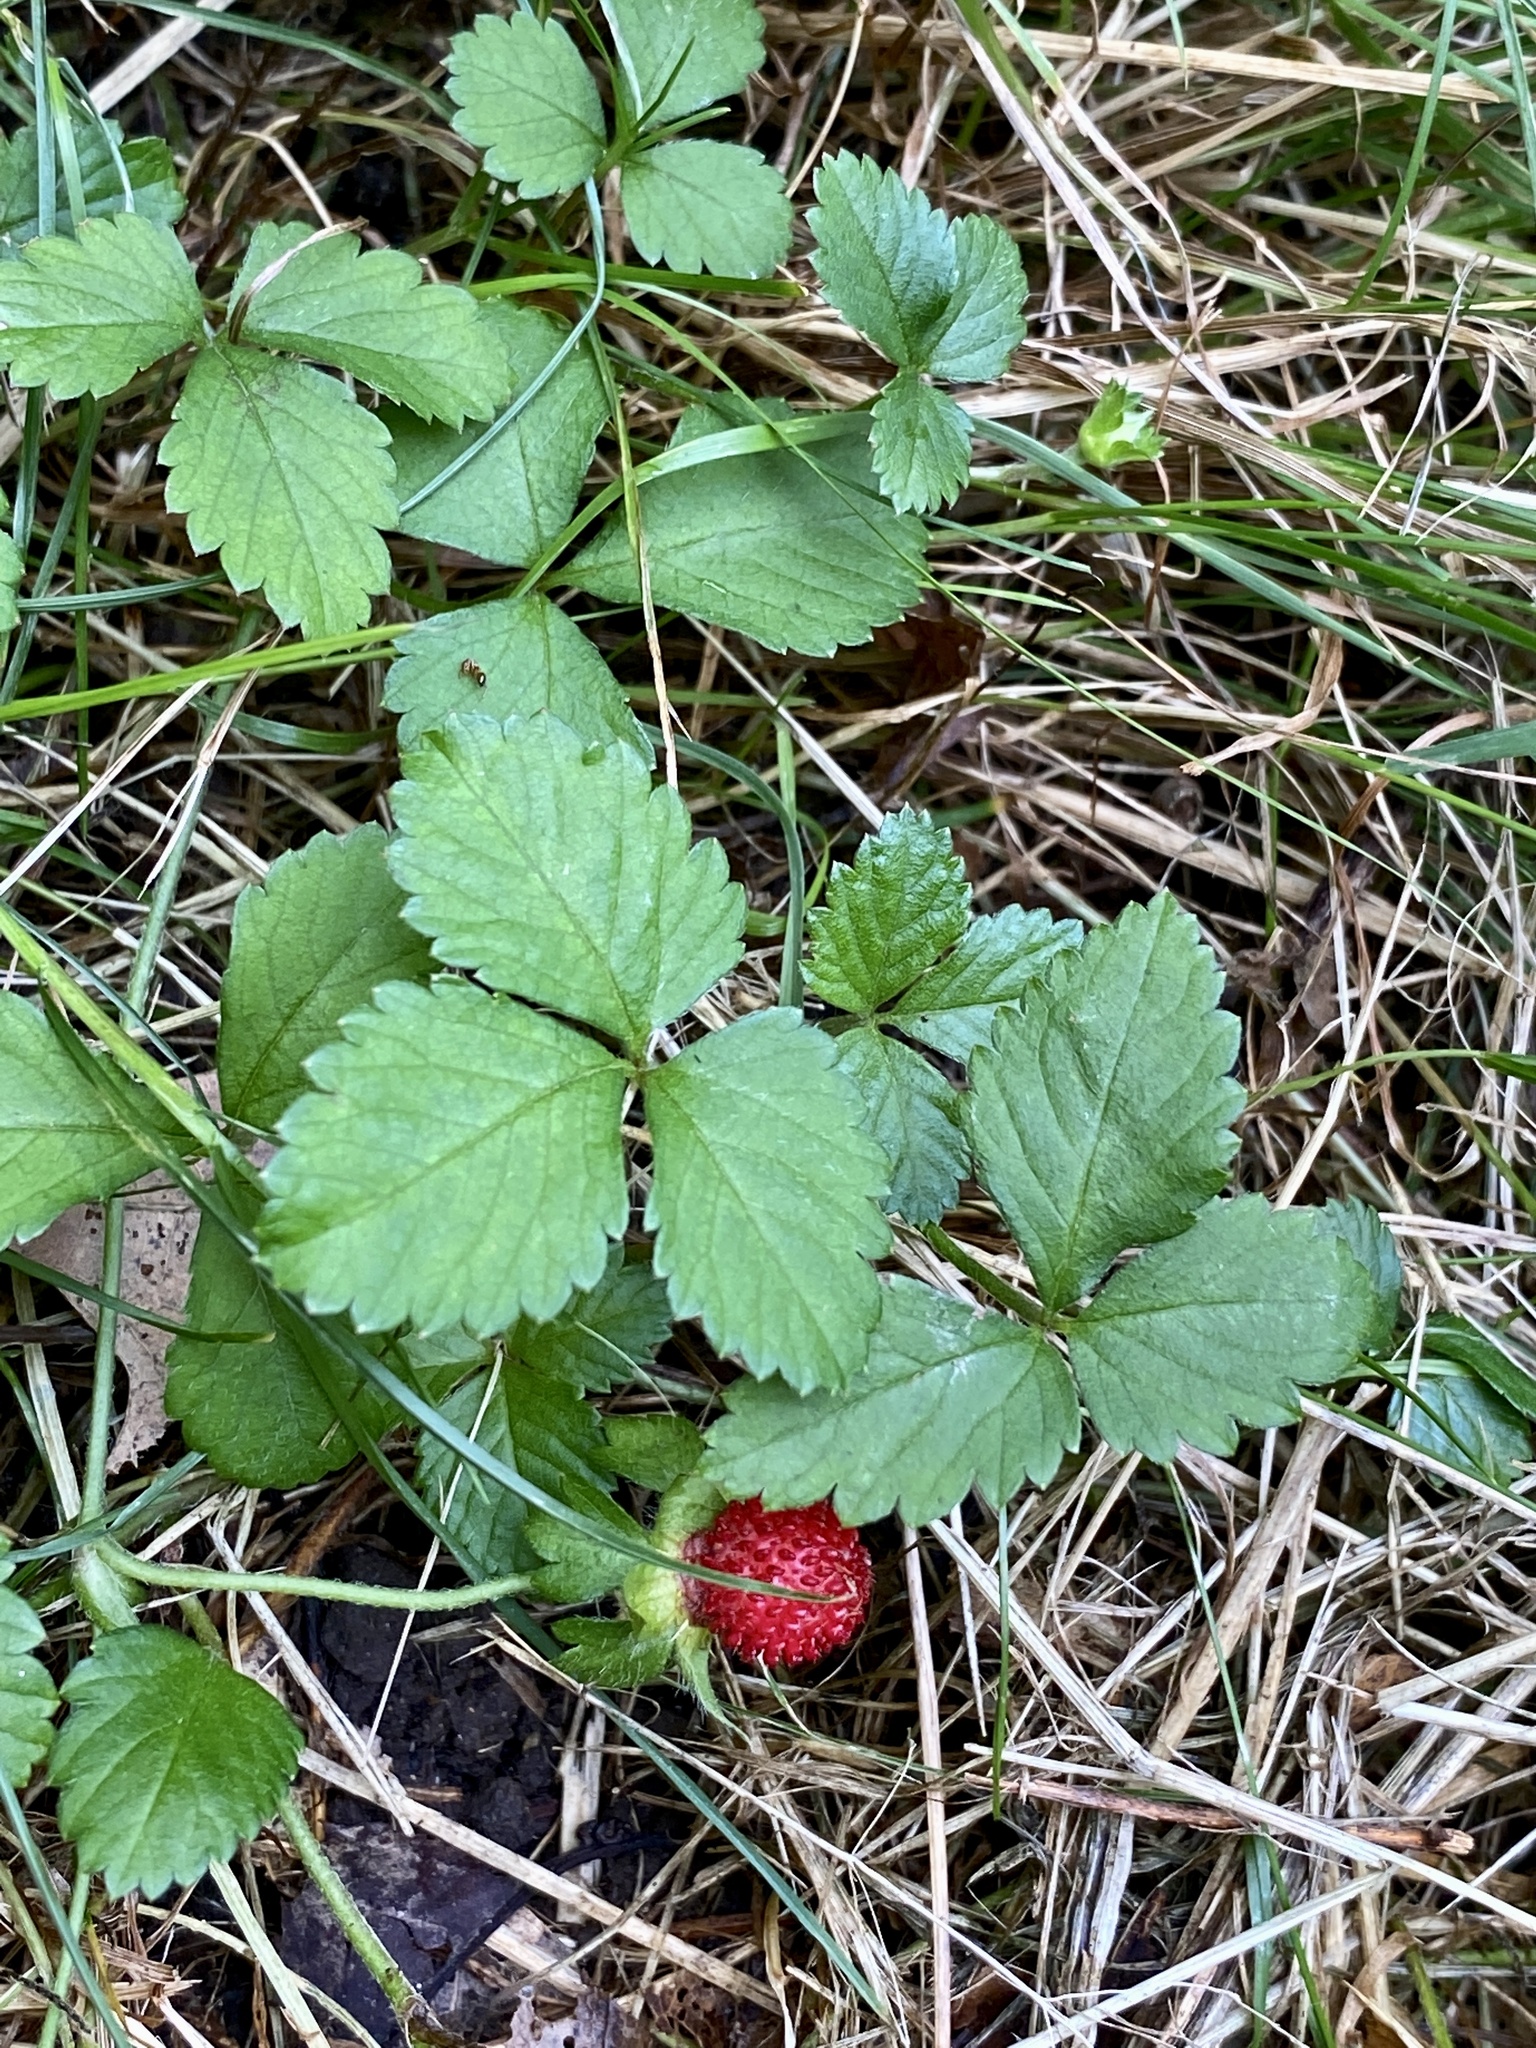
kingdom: Plantae
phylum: Tracheophyta
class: Magnoliopsida
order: Rosales
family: Rosaceae
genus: Potentilla
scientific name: Potentilla indica
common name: Yellow-flowered strawberry
